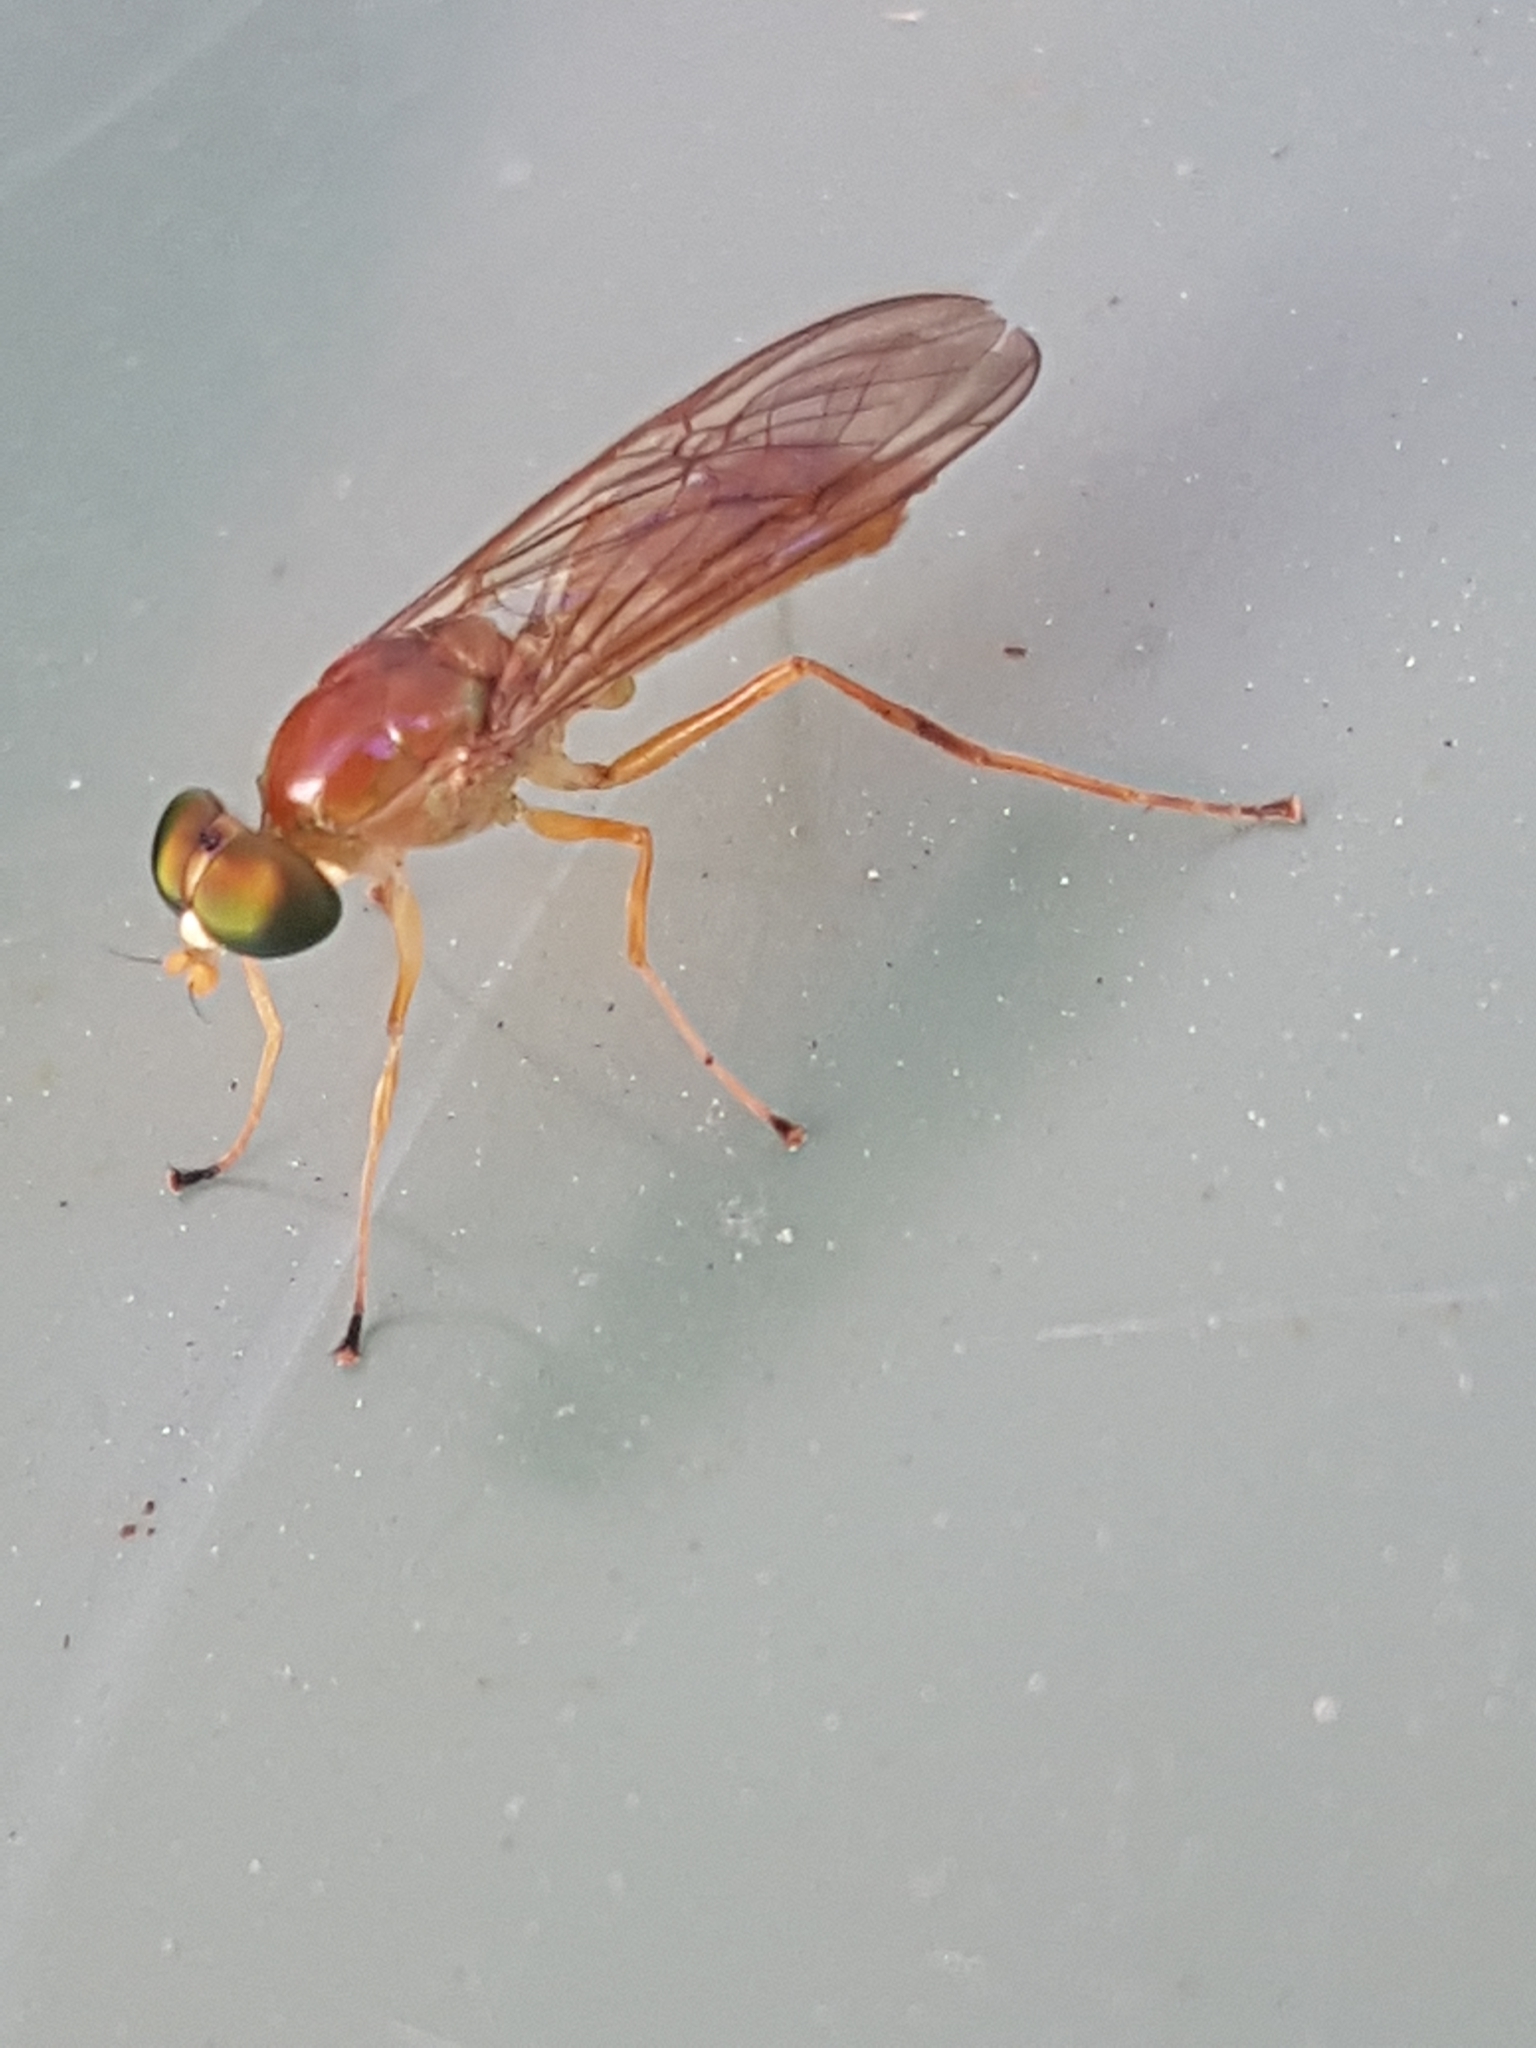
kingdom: Animalia
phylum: Arthropoda
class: Insecta
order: Diptera
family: Stratiomyidae
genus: Ptecticus
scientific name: Ptecticus trivittatus
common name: Compost fly
